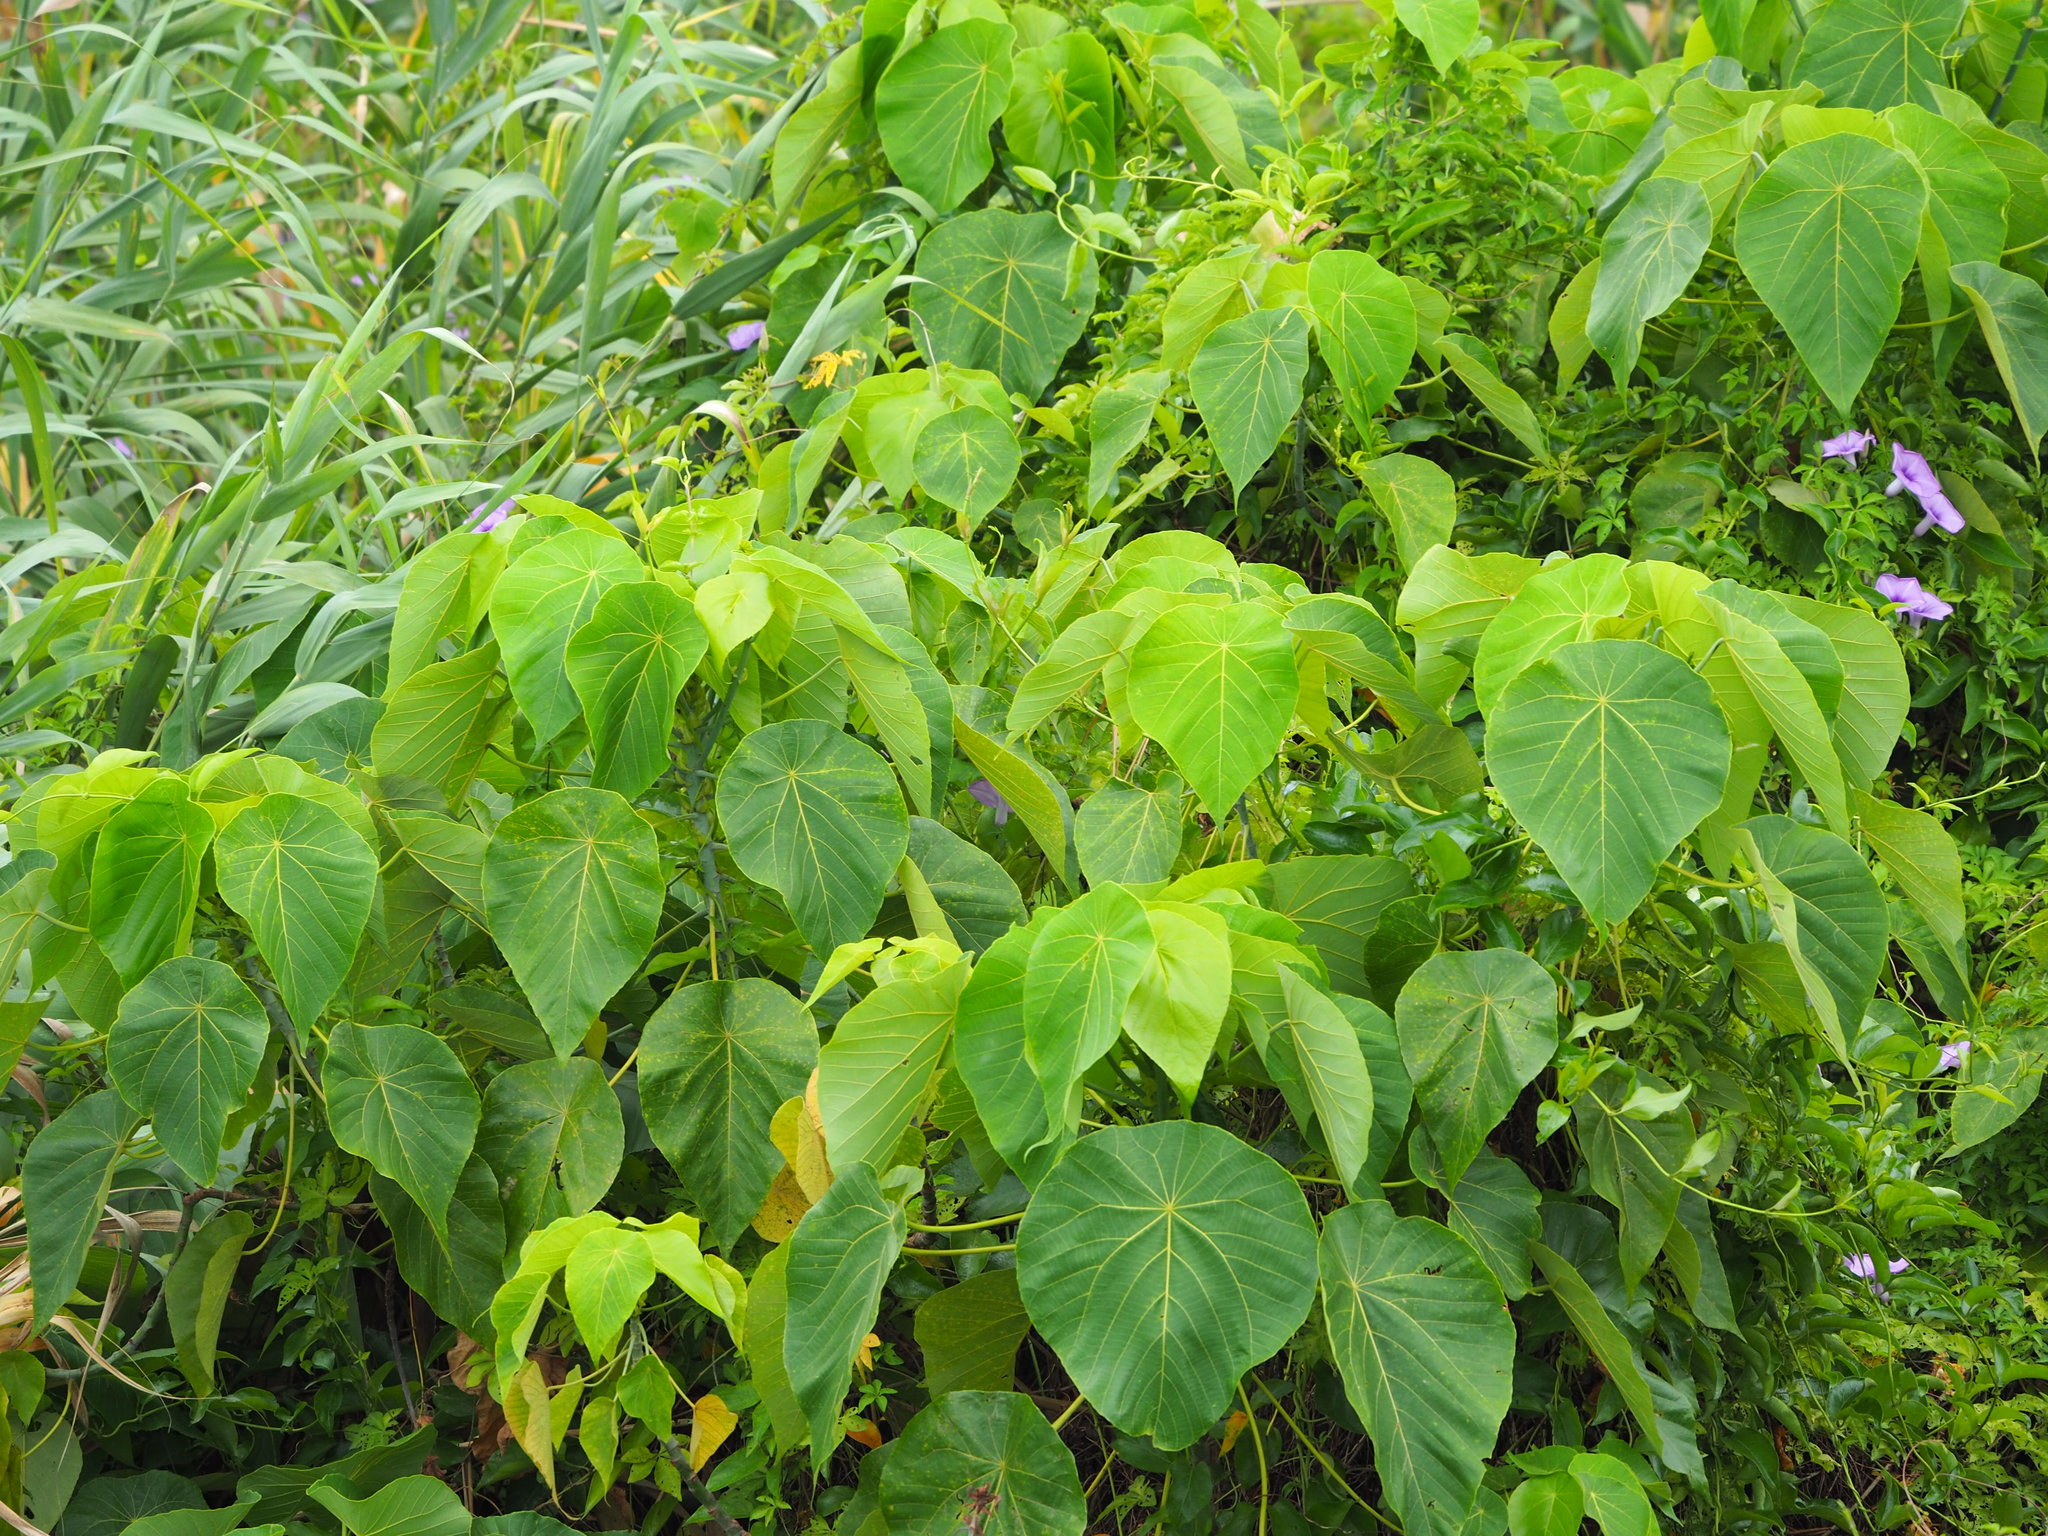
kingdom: Plantae
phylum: Tracheophyta
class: Magnoliopsida
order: Malpighiales
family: Euphorbiaceae
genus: Macaranga
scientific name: Macaranga tanarius
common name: Parasol leaf tree
